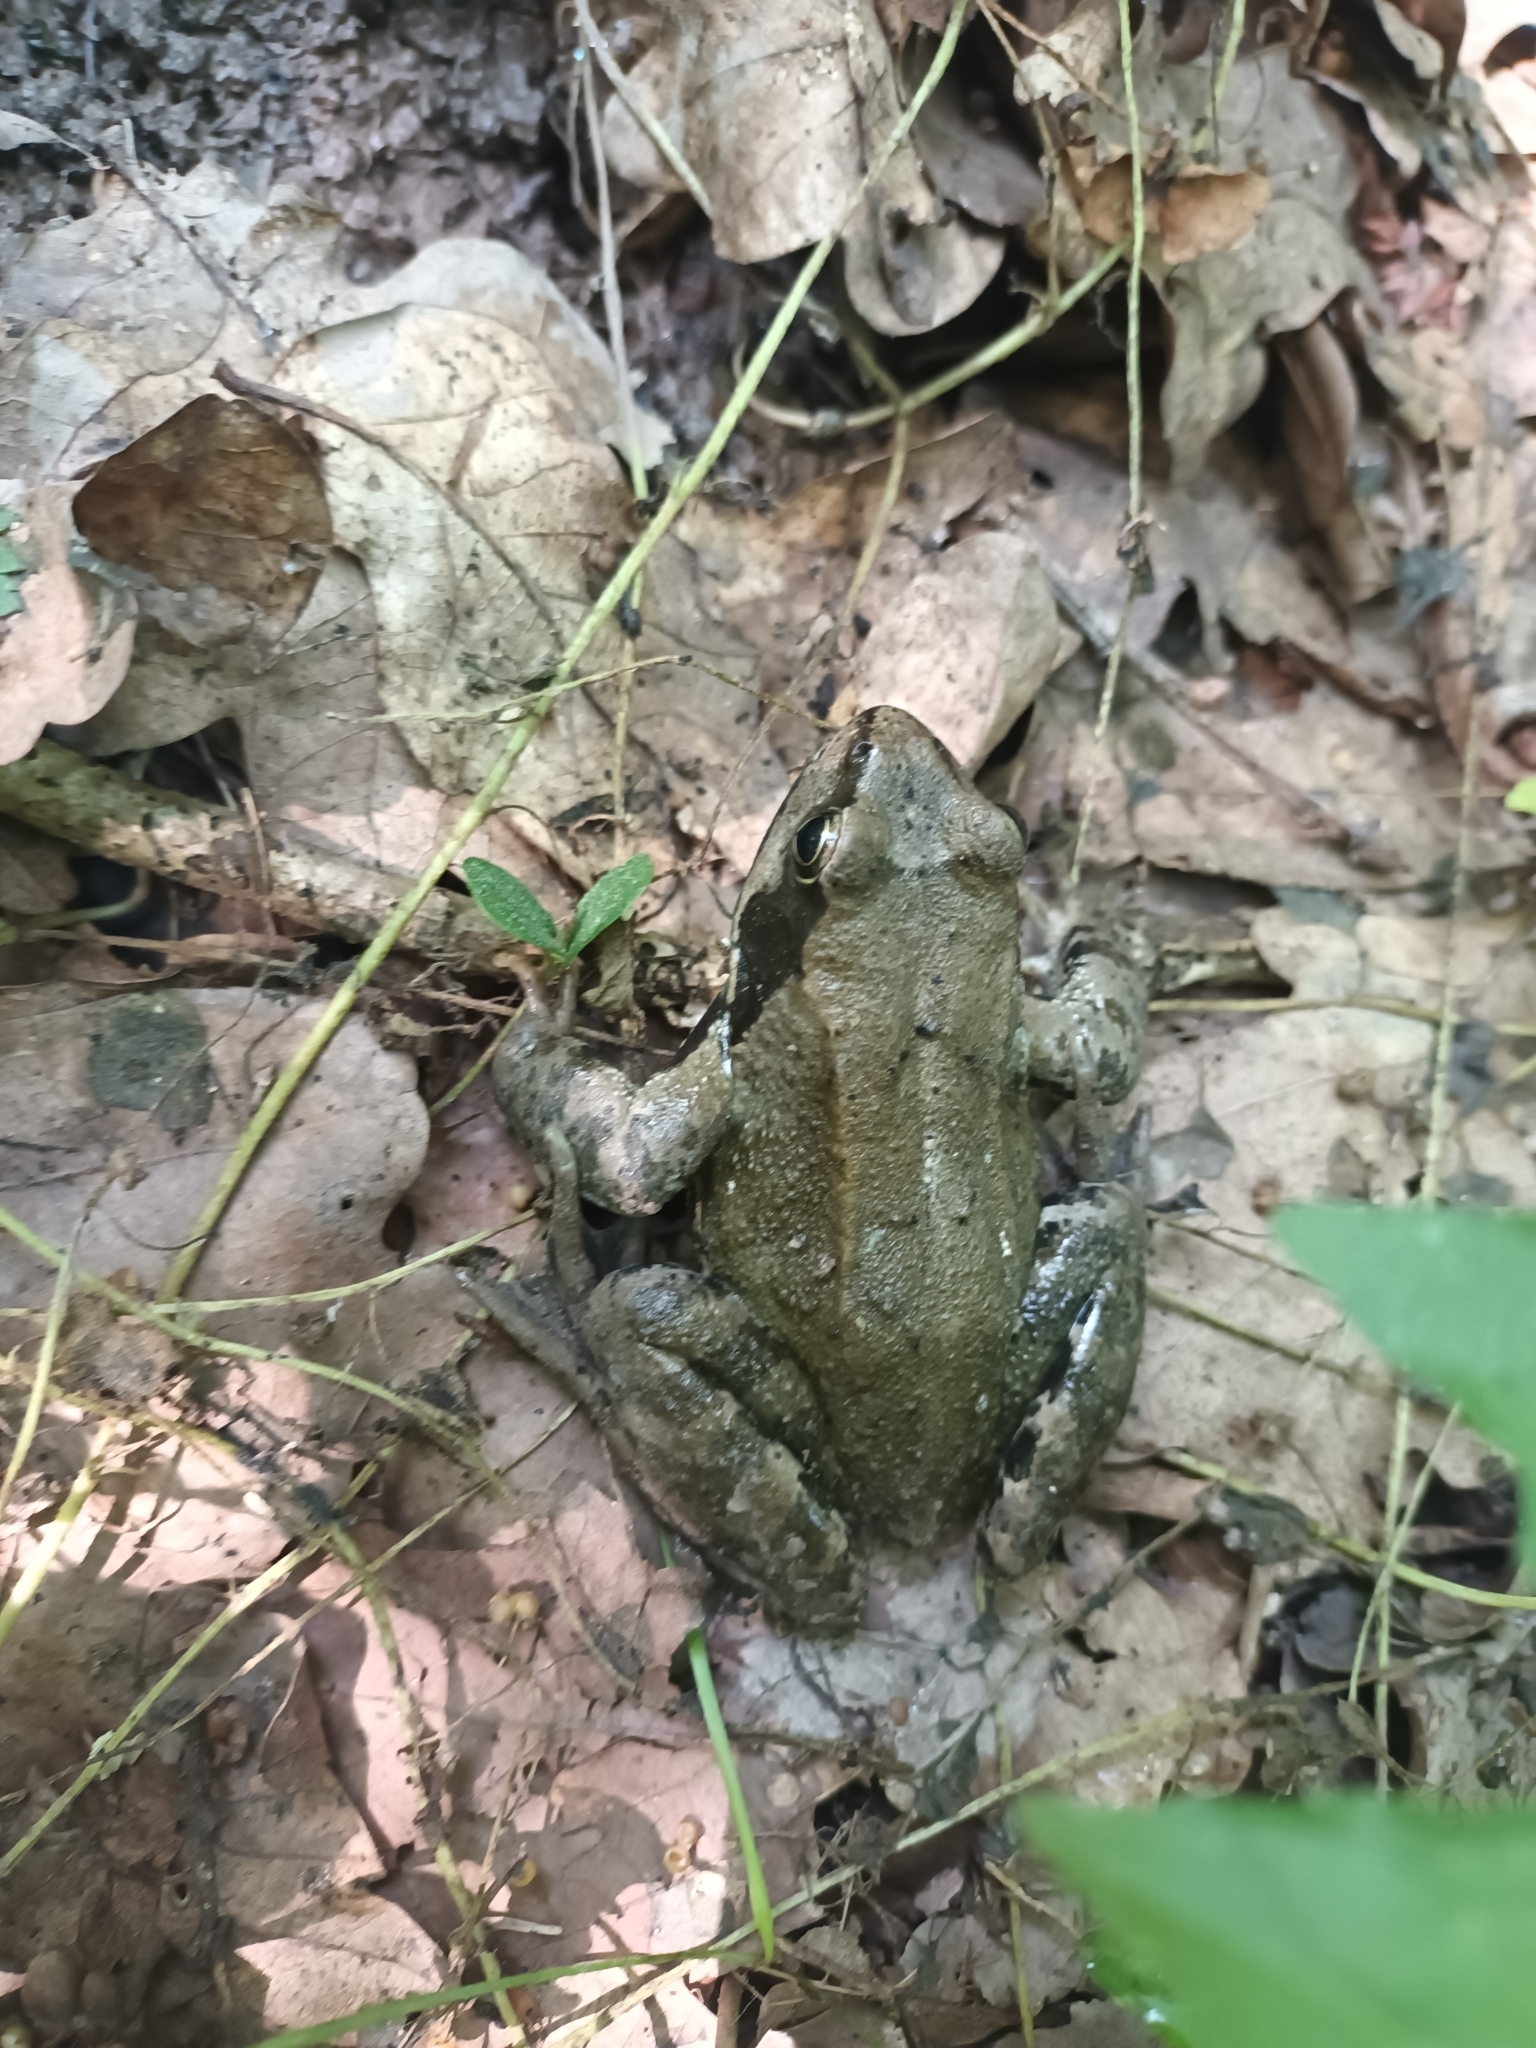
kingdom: Animalia
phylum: Chordata
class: Amphibia
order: Anura
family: Ranidae
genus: Rana
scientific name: Rana temporaria
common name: Common frog
